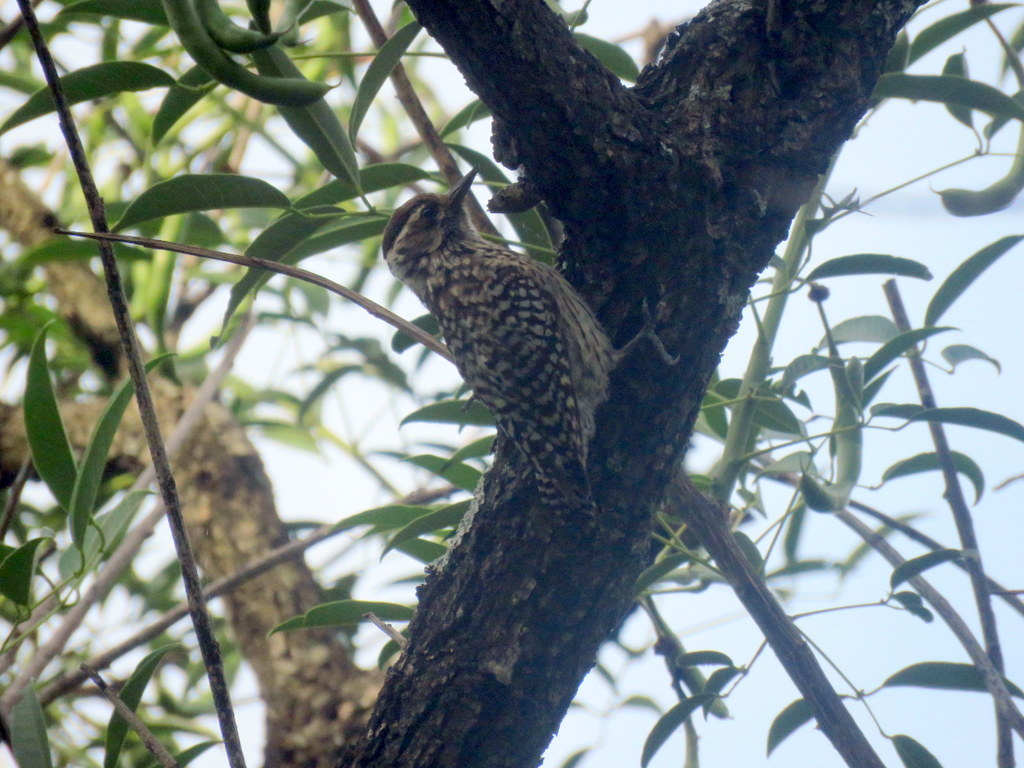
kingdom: Animalia
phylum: Chordata
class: Aves
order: Piciformes
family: Picidae
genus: Veniliornis
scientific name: Veniliornis mixtus
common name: Checkered woodpecker
